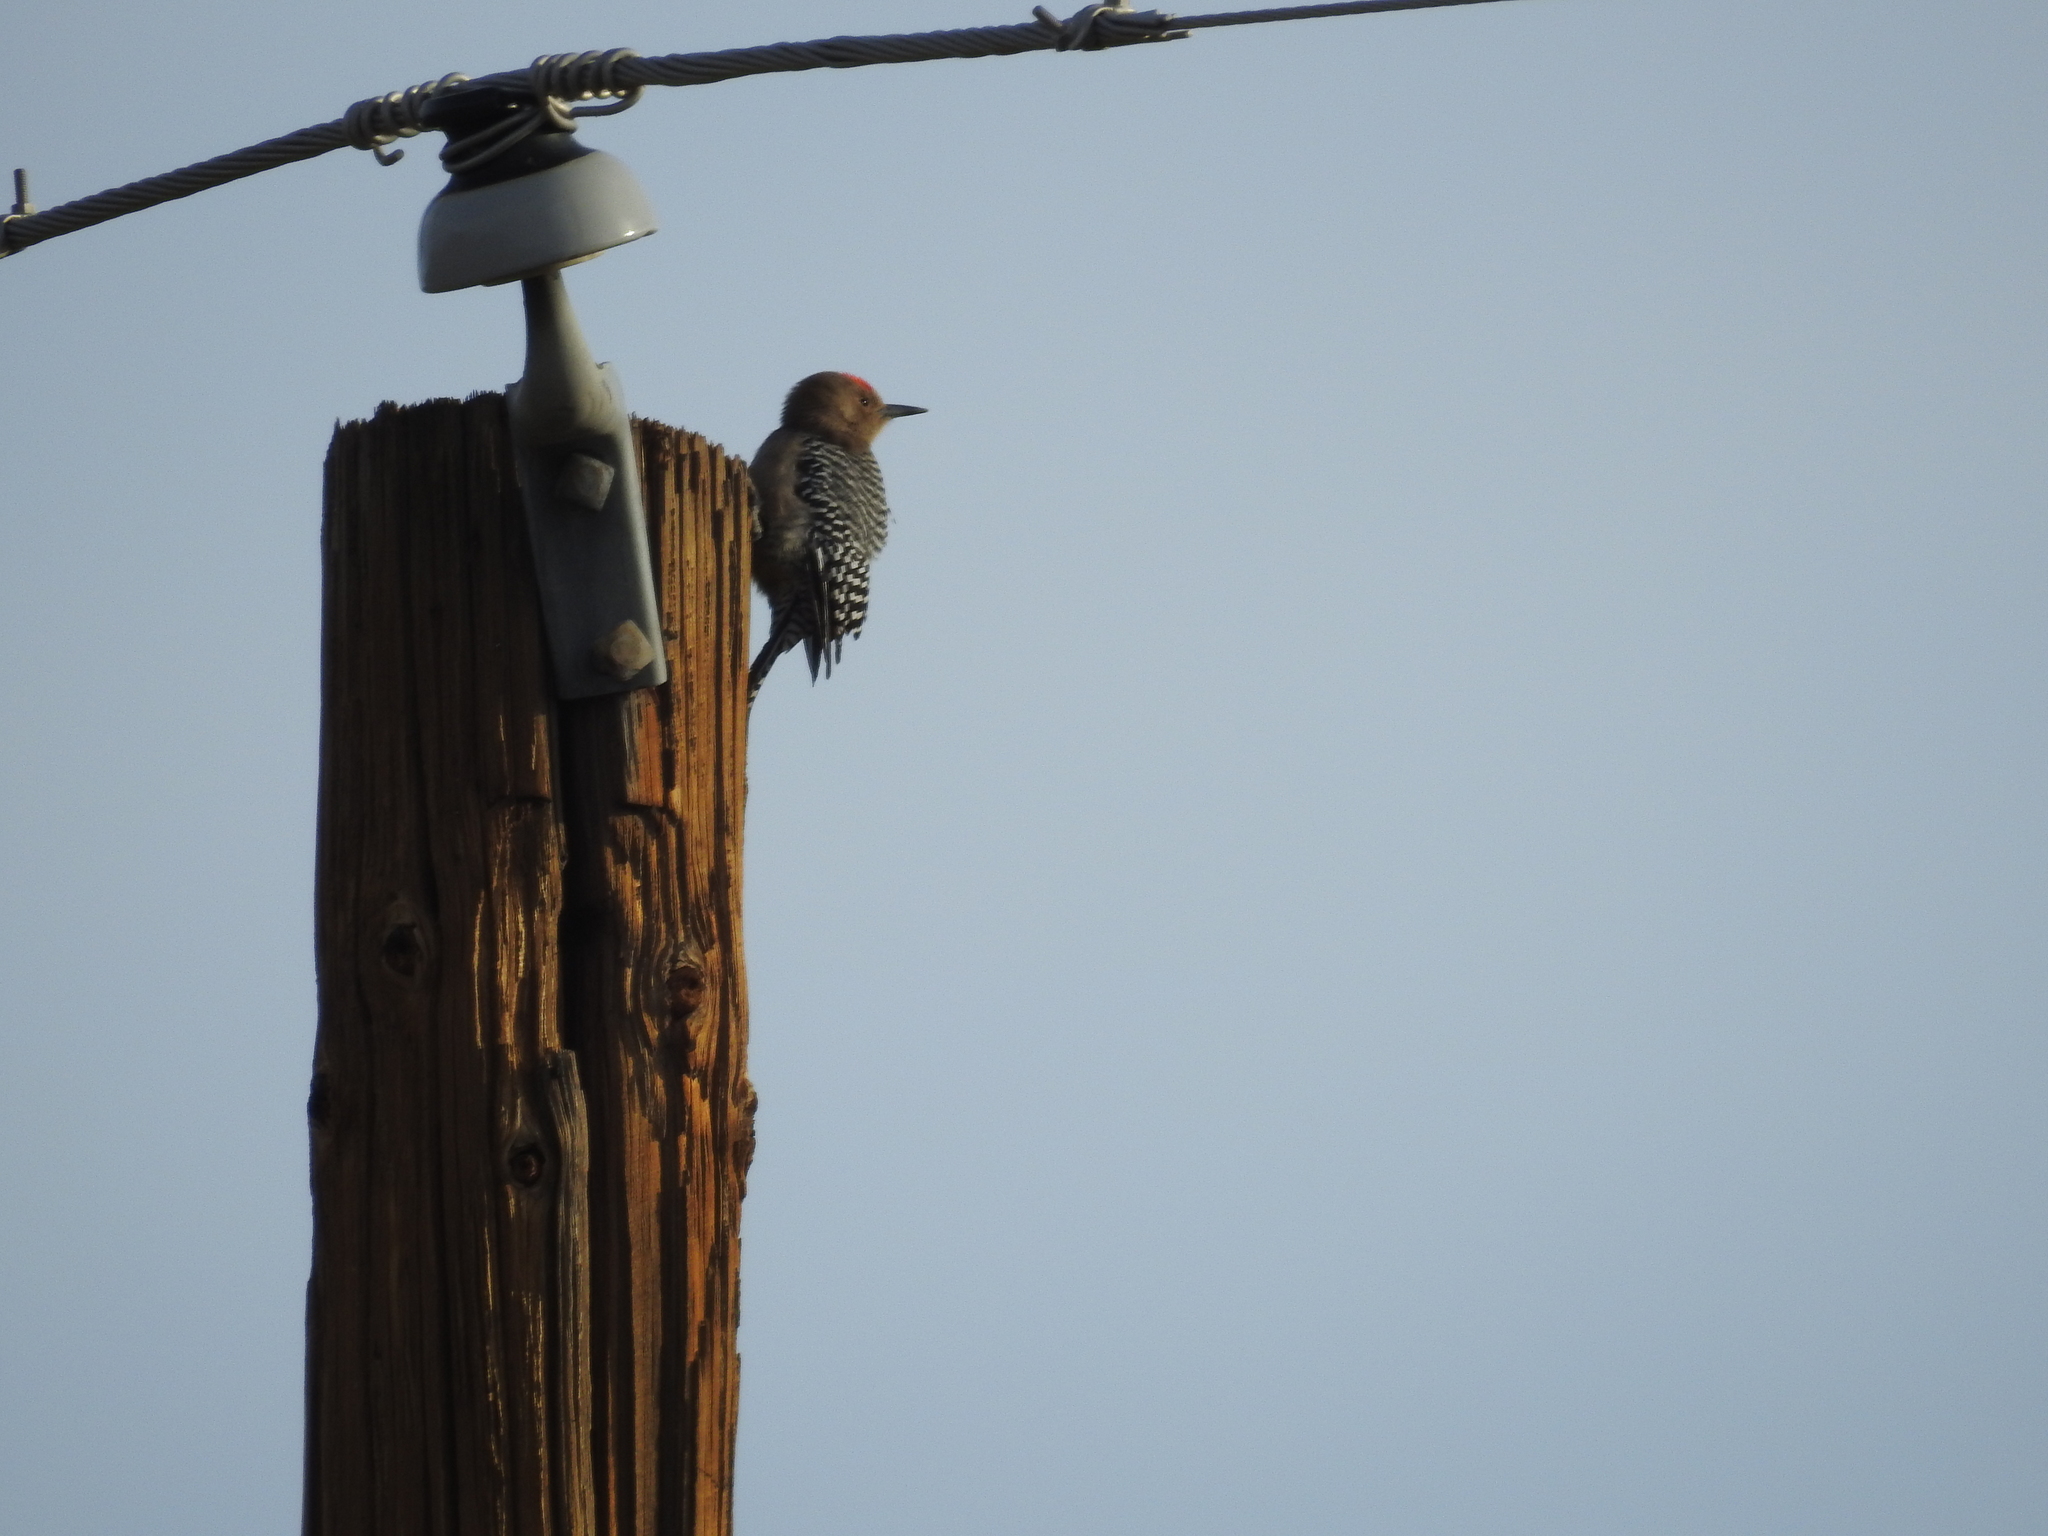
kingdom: Animalia
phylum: Chordata
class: Aves
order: Piciformes
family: Picidae
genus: Melanerpes
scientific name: Melanerpes uropygialis
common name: Gila woodpecker
